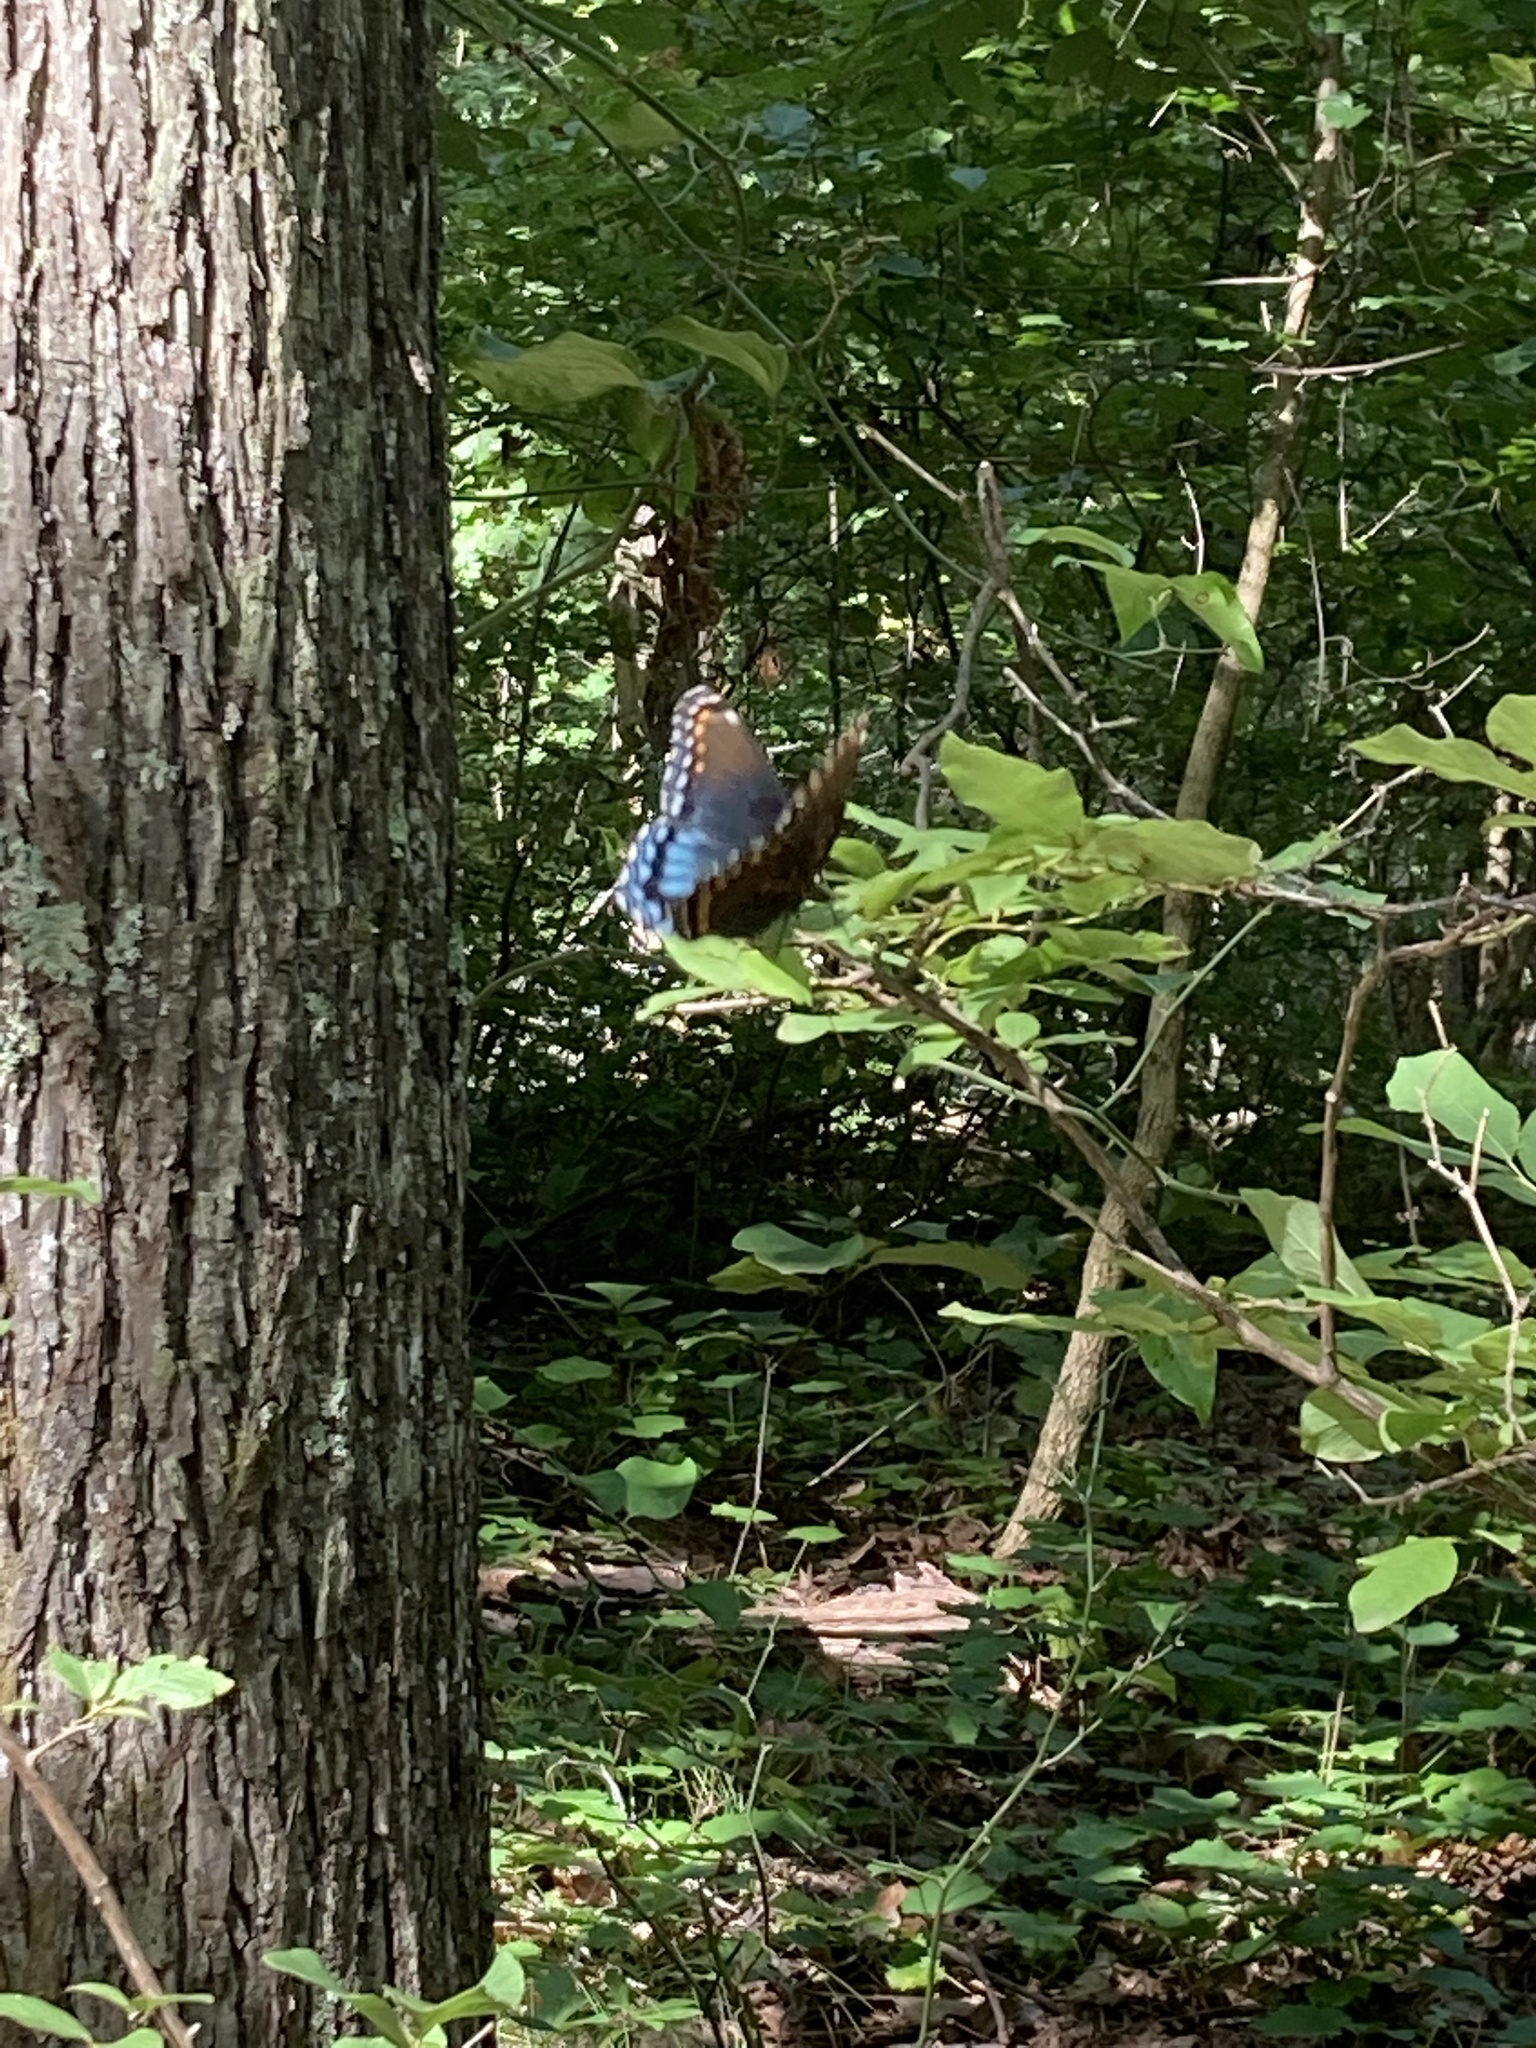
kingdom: Animalia
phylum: Arthropoda
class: Insecta
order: Lepidoptera
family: Nymphalidae
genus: Limenitis
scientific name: Limenitis astyanax
